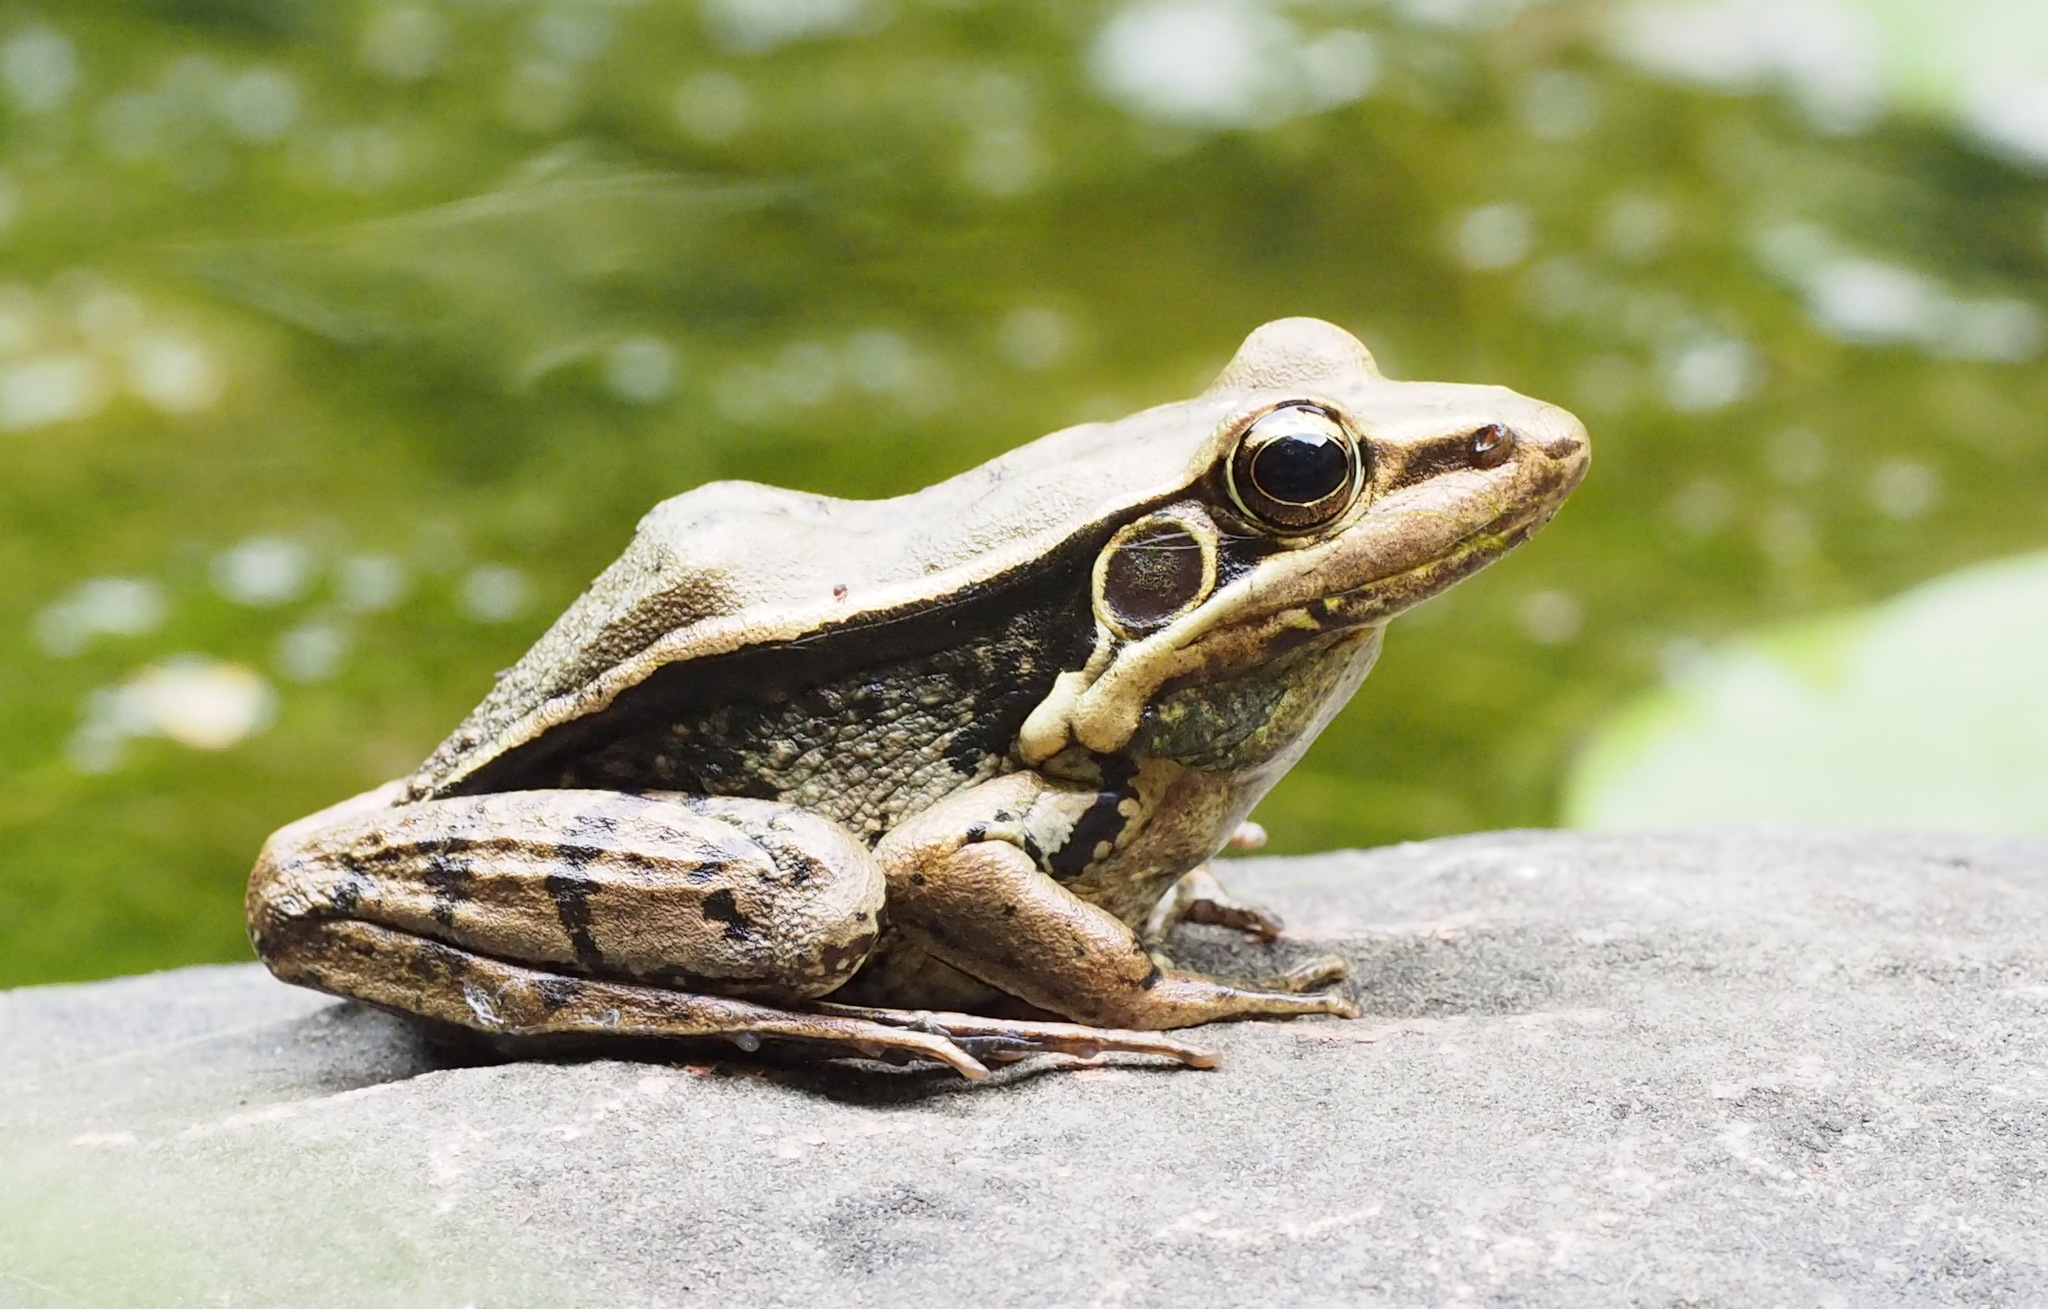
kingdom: Animalia
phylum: Chordata
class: Amphibia
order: Anura
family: Ranidae
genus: Sylvirana
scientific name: Sylvirana guentheri
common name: Guenther's amoy frog
